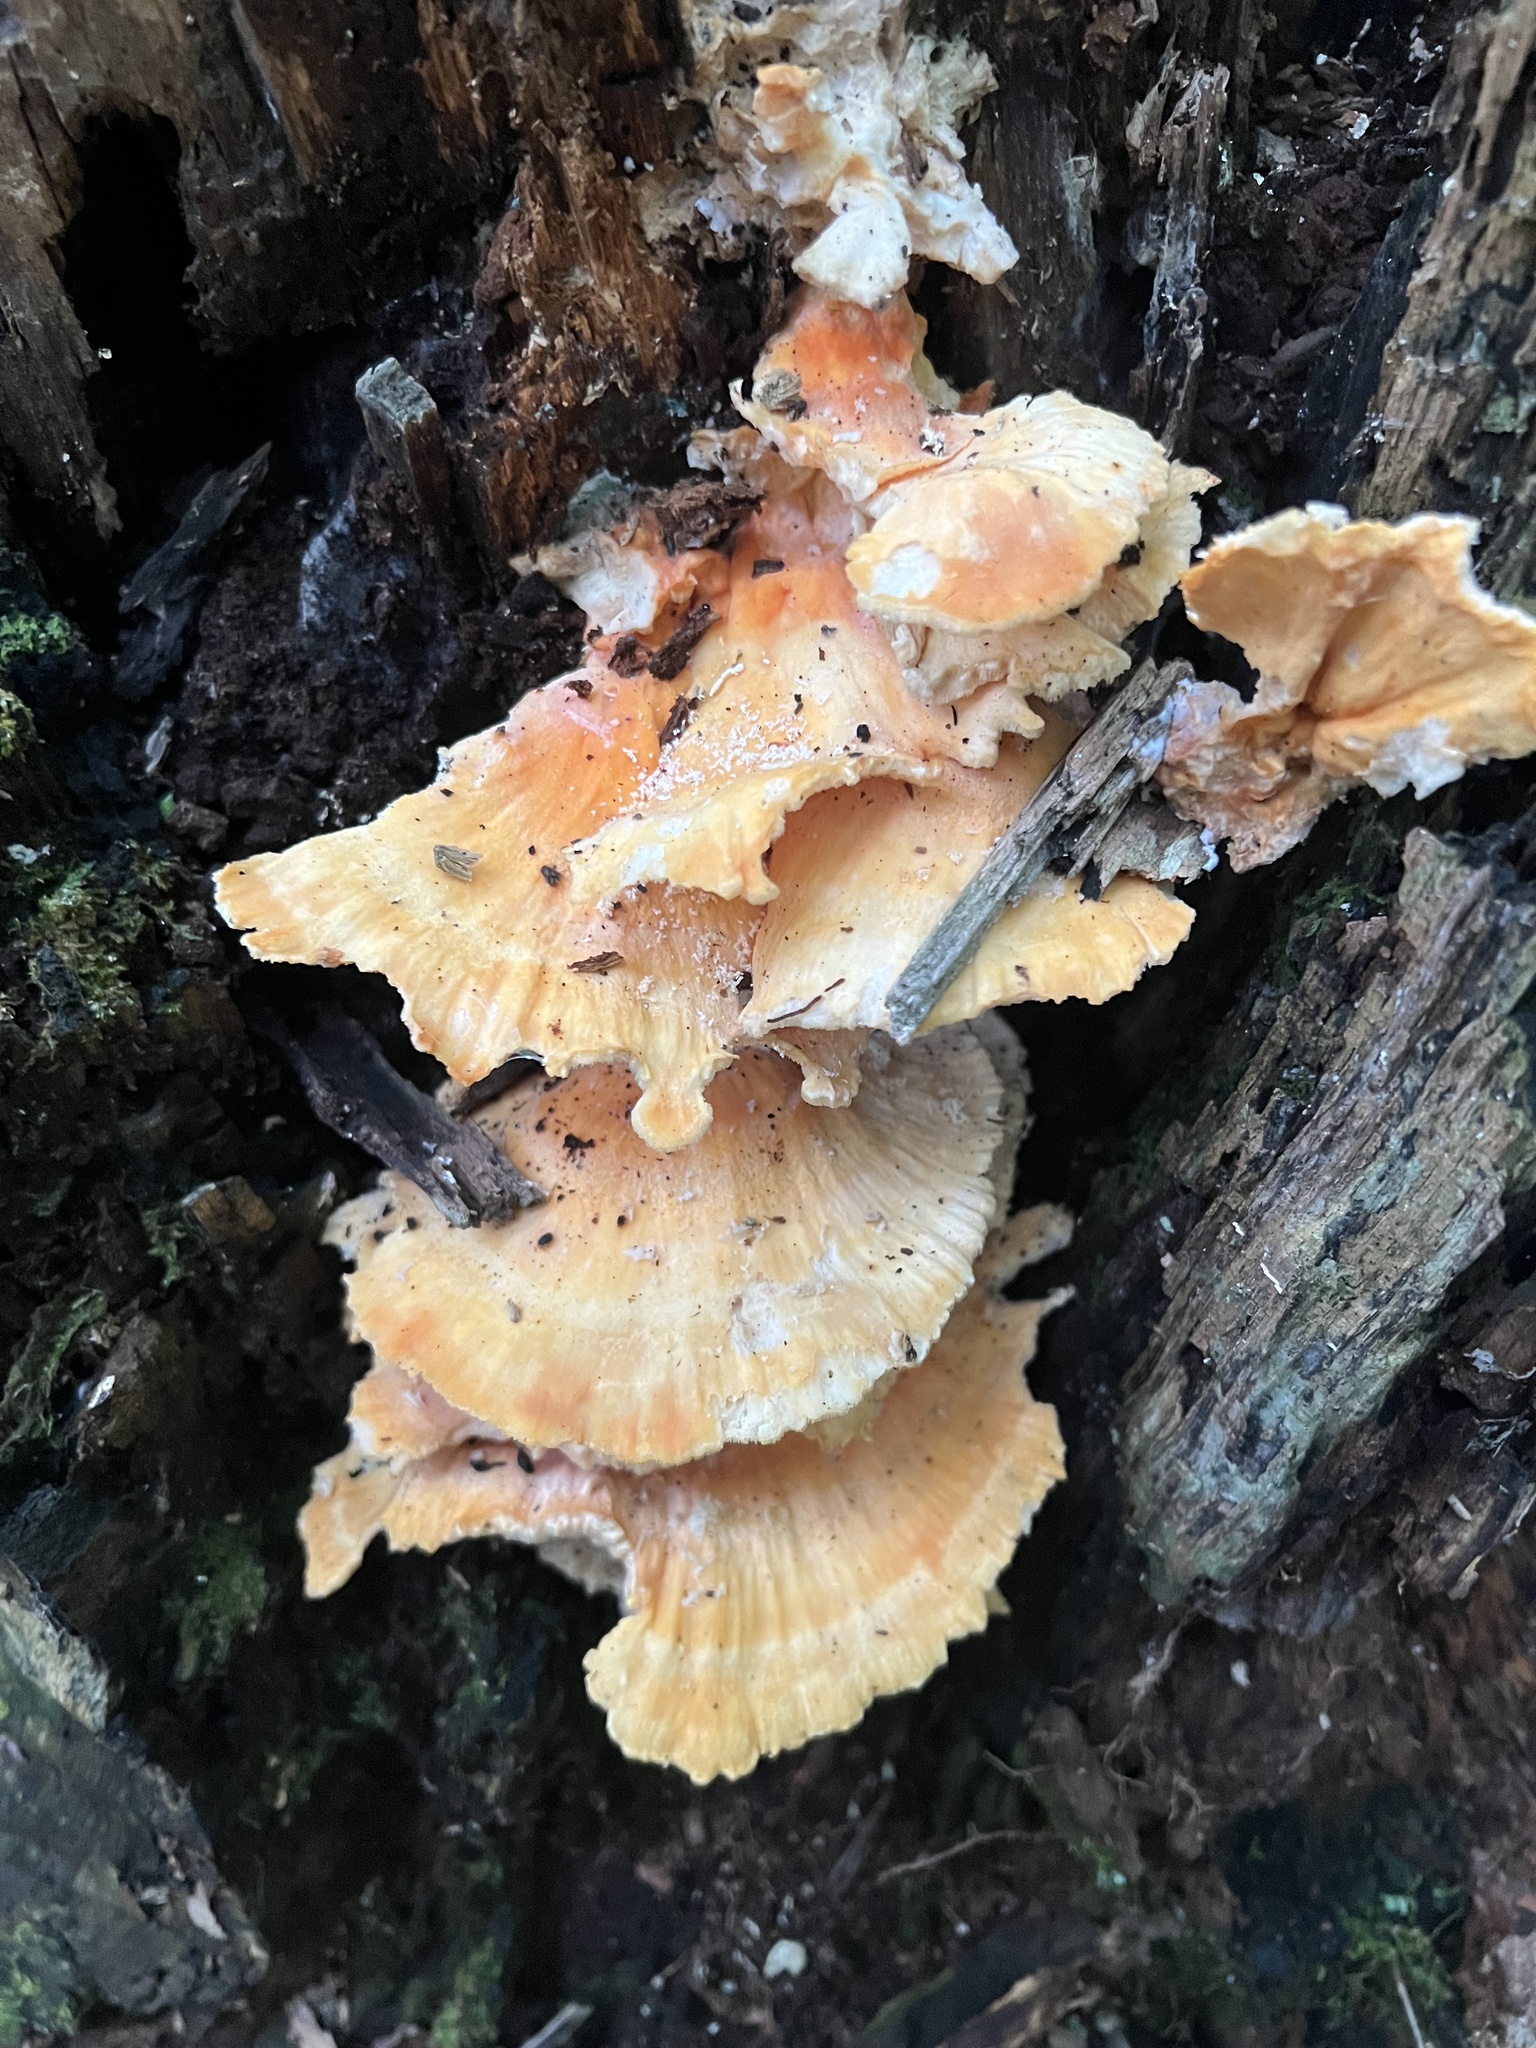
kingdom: Fungi
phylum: Basidiomycota
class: Agaricomycetes
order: Polyporales
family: Laetiporaceae
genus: Laetiporus
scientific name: Laetiporus sulphureus
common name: Chicken of the woods
